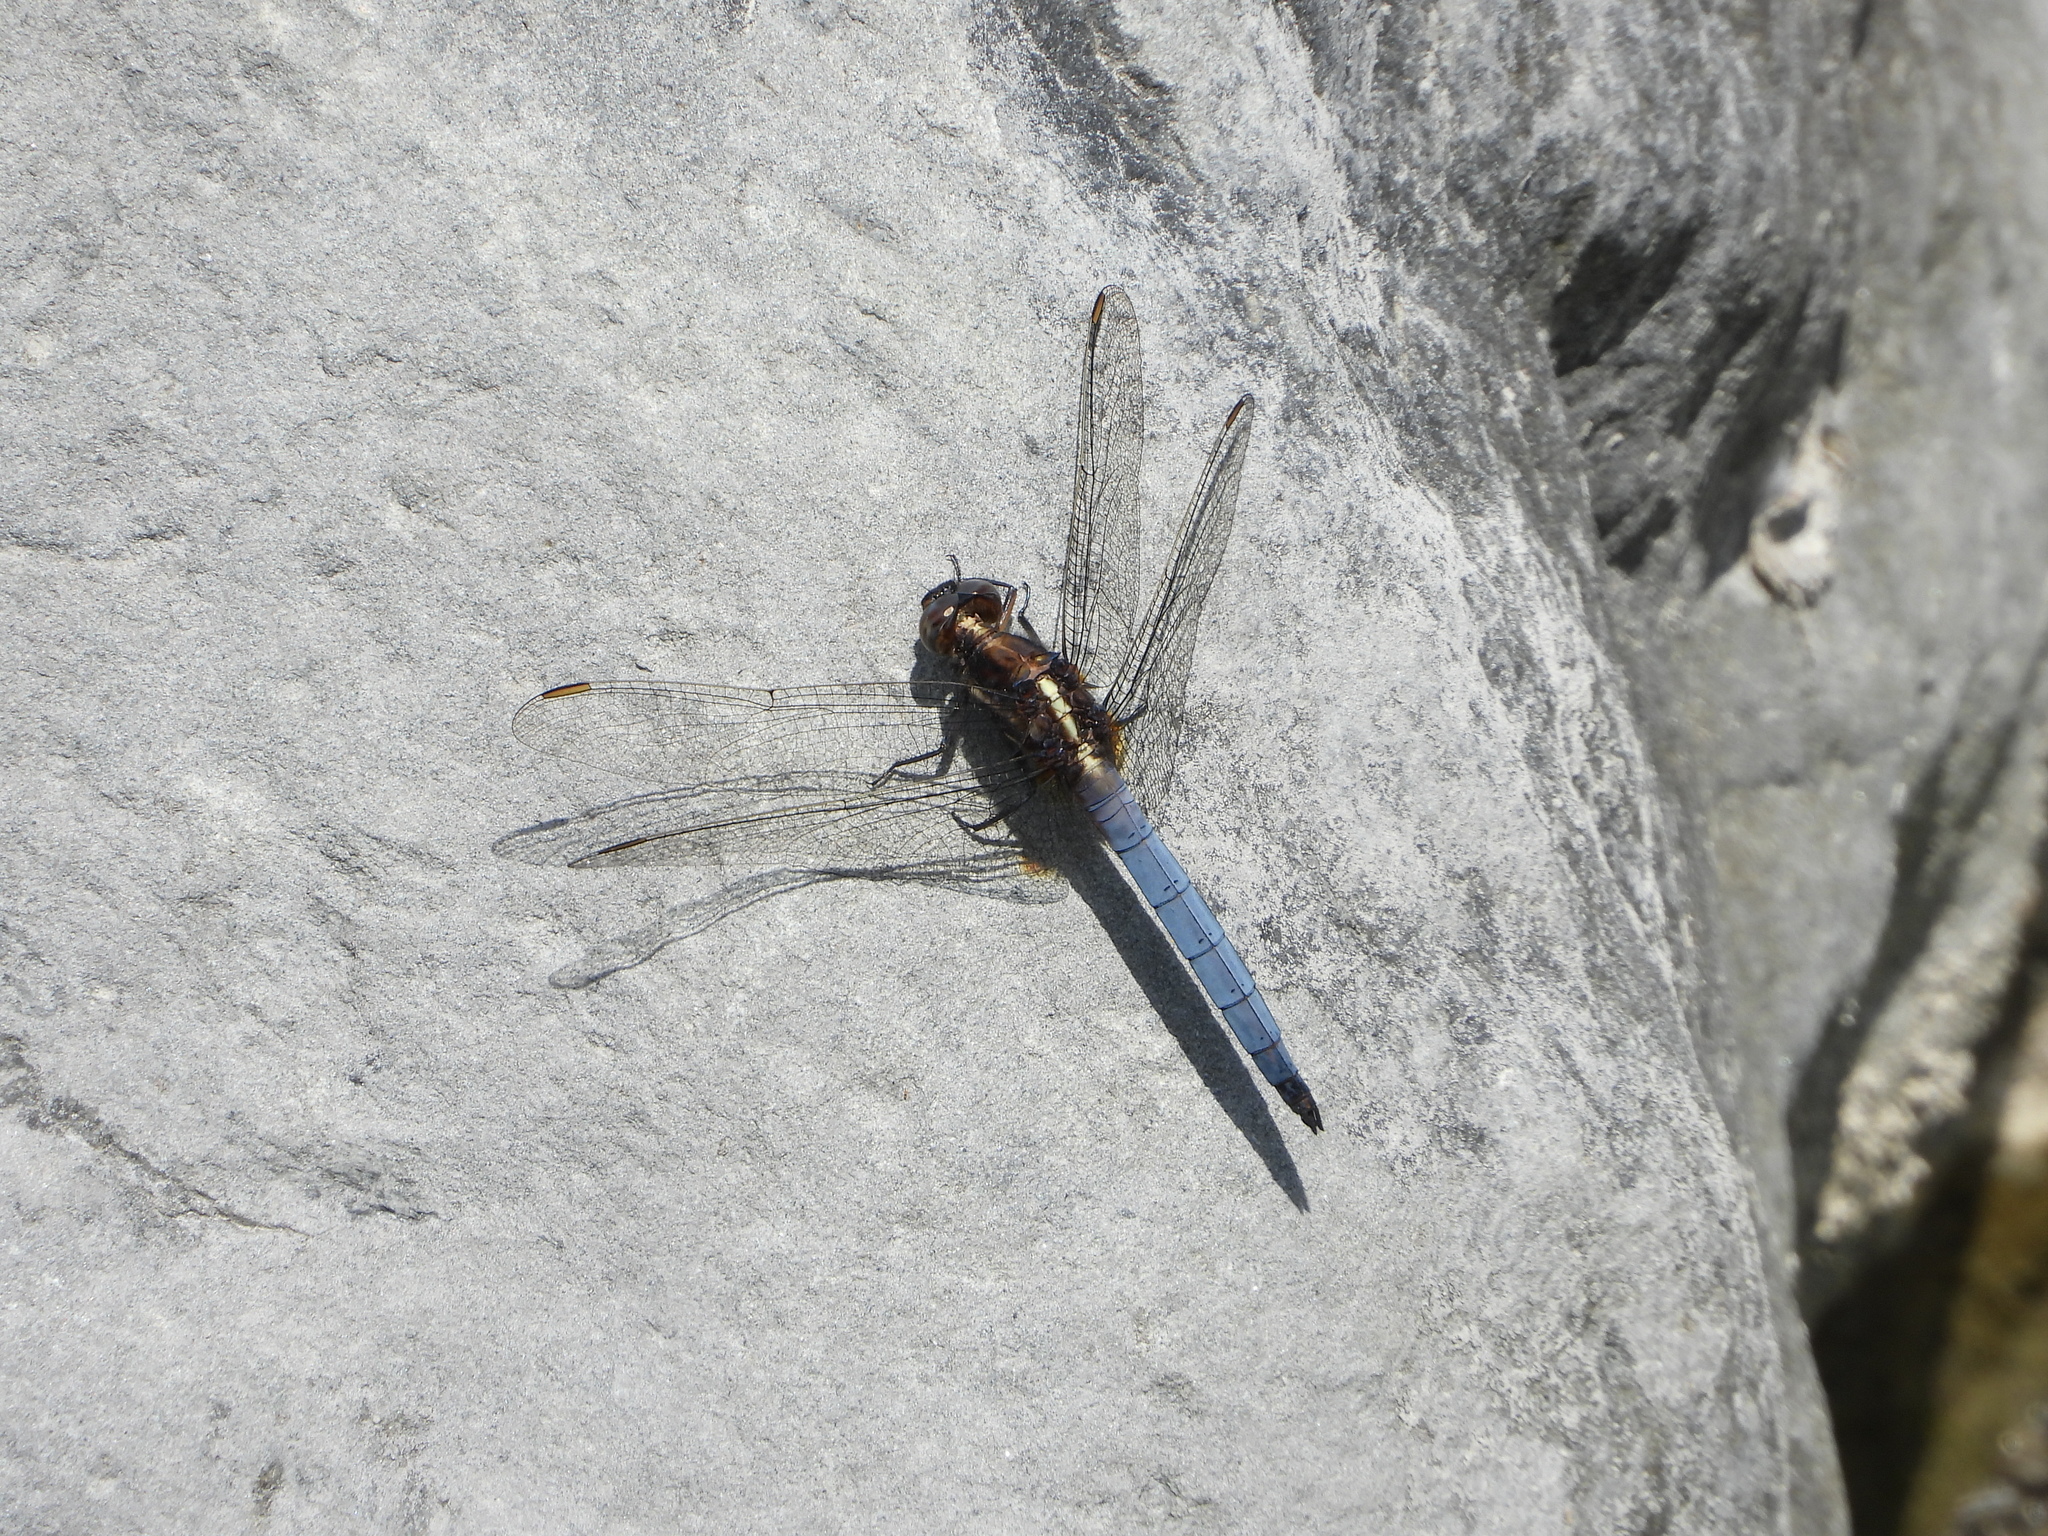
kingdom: Animalia
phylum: Arthropoda
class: Insecta
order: Odonata
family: Libellulidae
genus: Orthetrum
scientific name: Orthetrum glaucum
